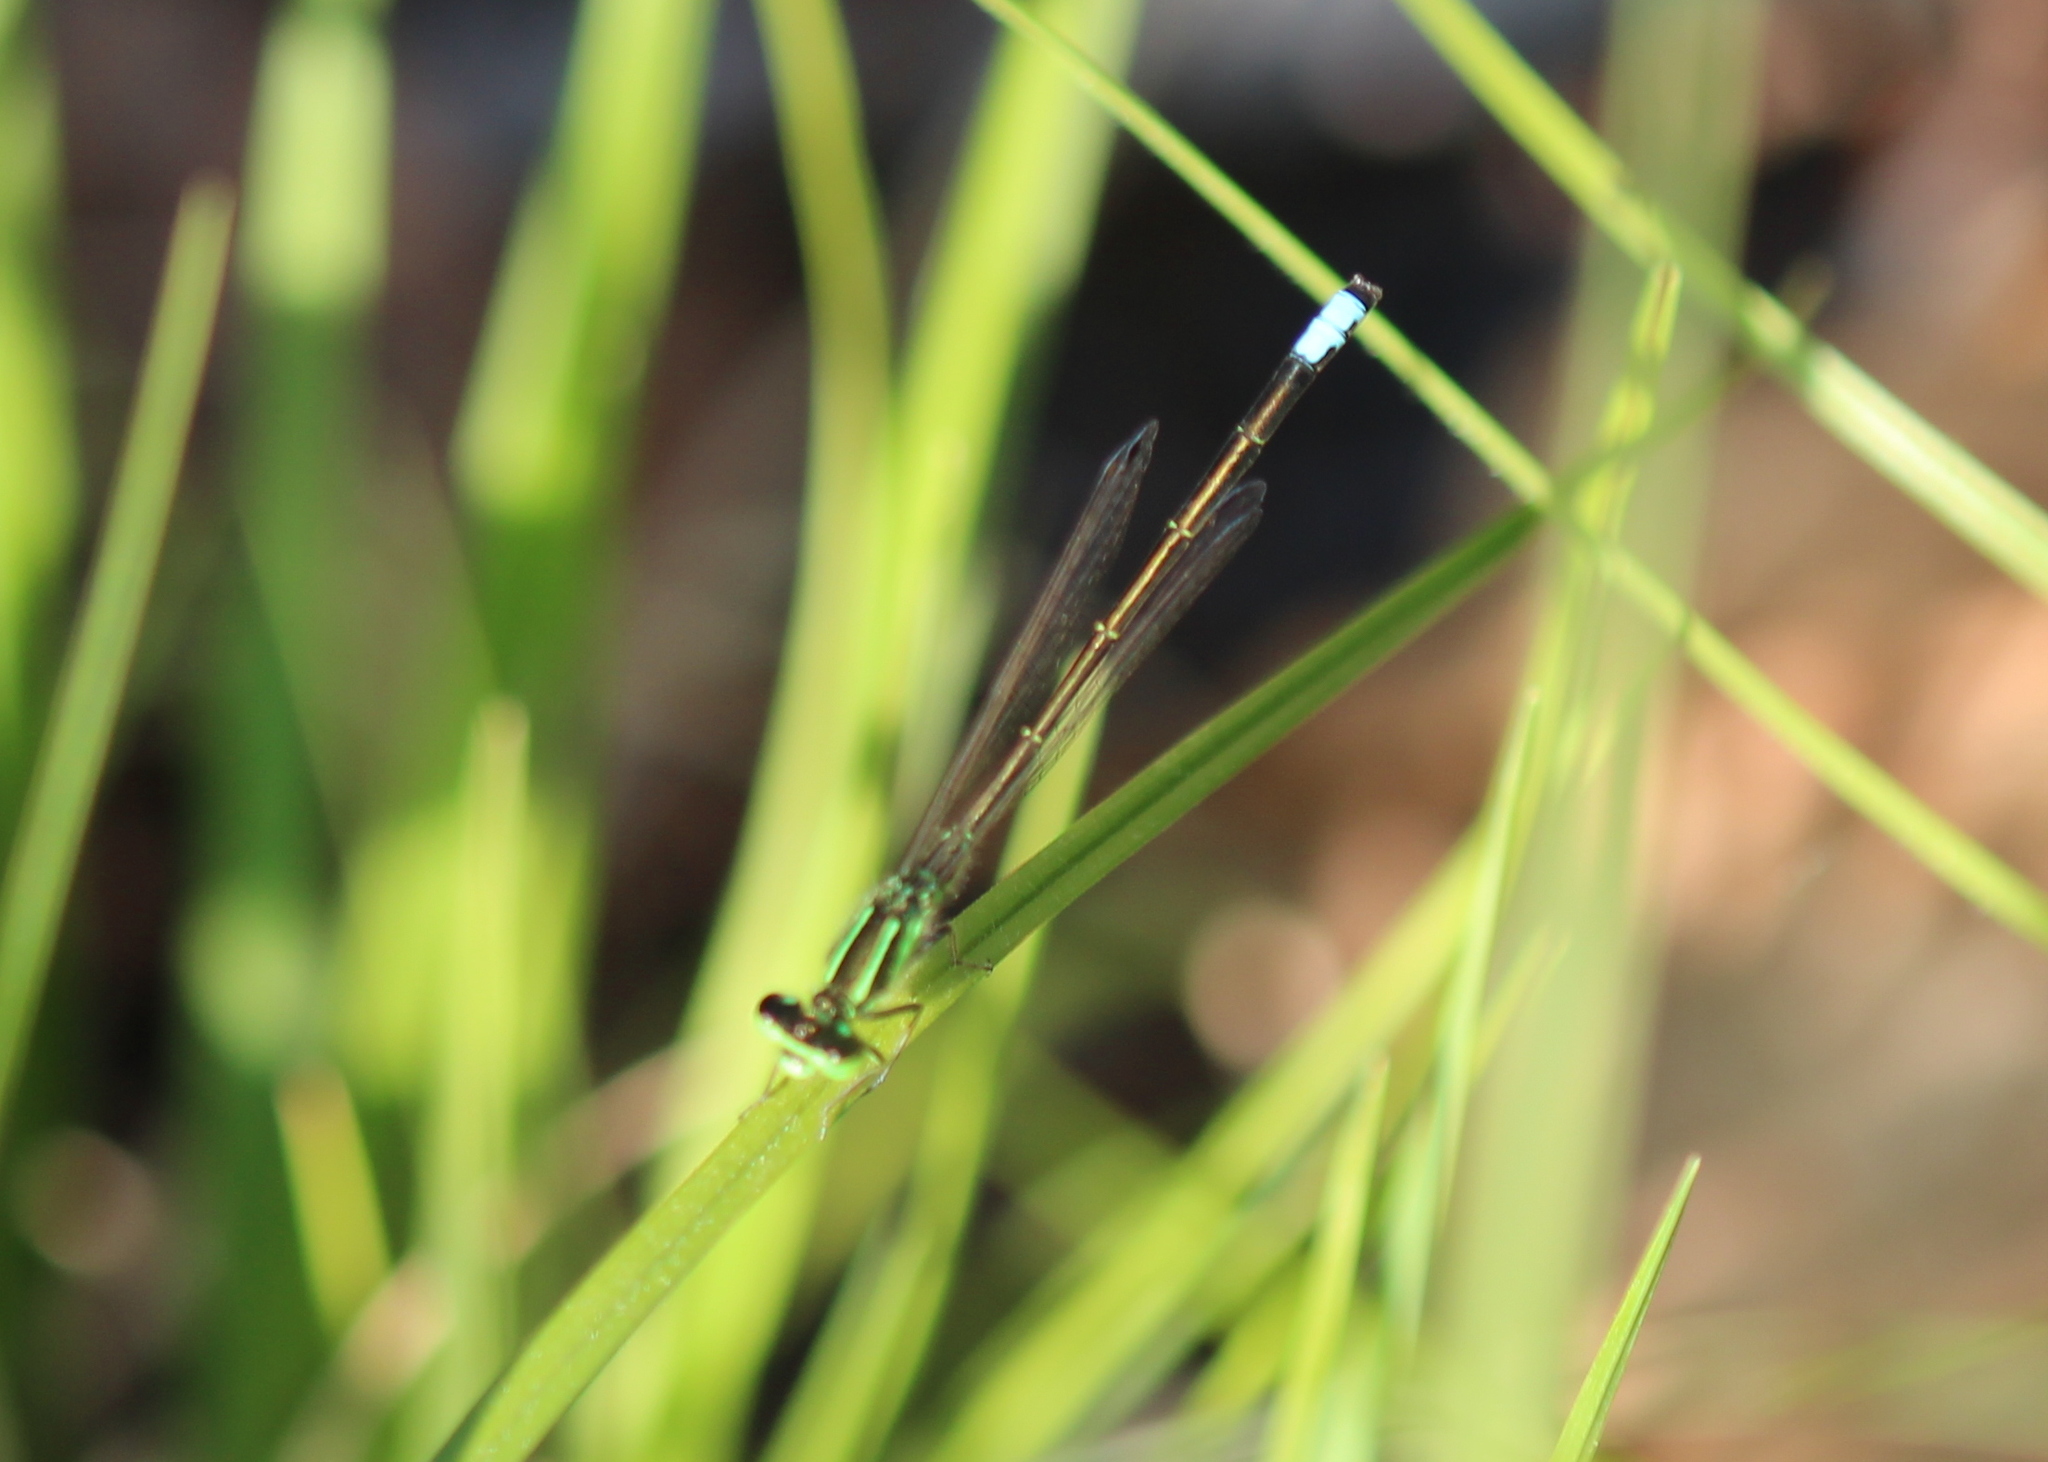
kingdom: Animalia
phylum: Arthropoda
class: Insecta
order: Odonata
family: Coenagrionidae
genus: Ischnura
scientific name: Ischnura verticalis
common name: Eastern forktail
